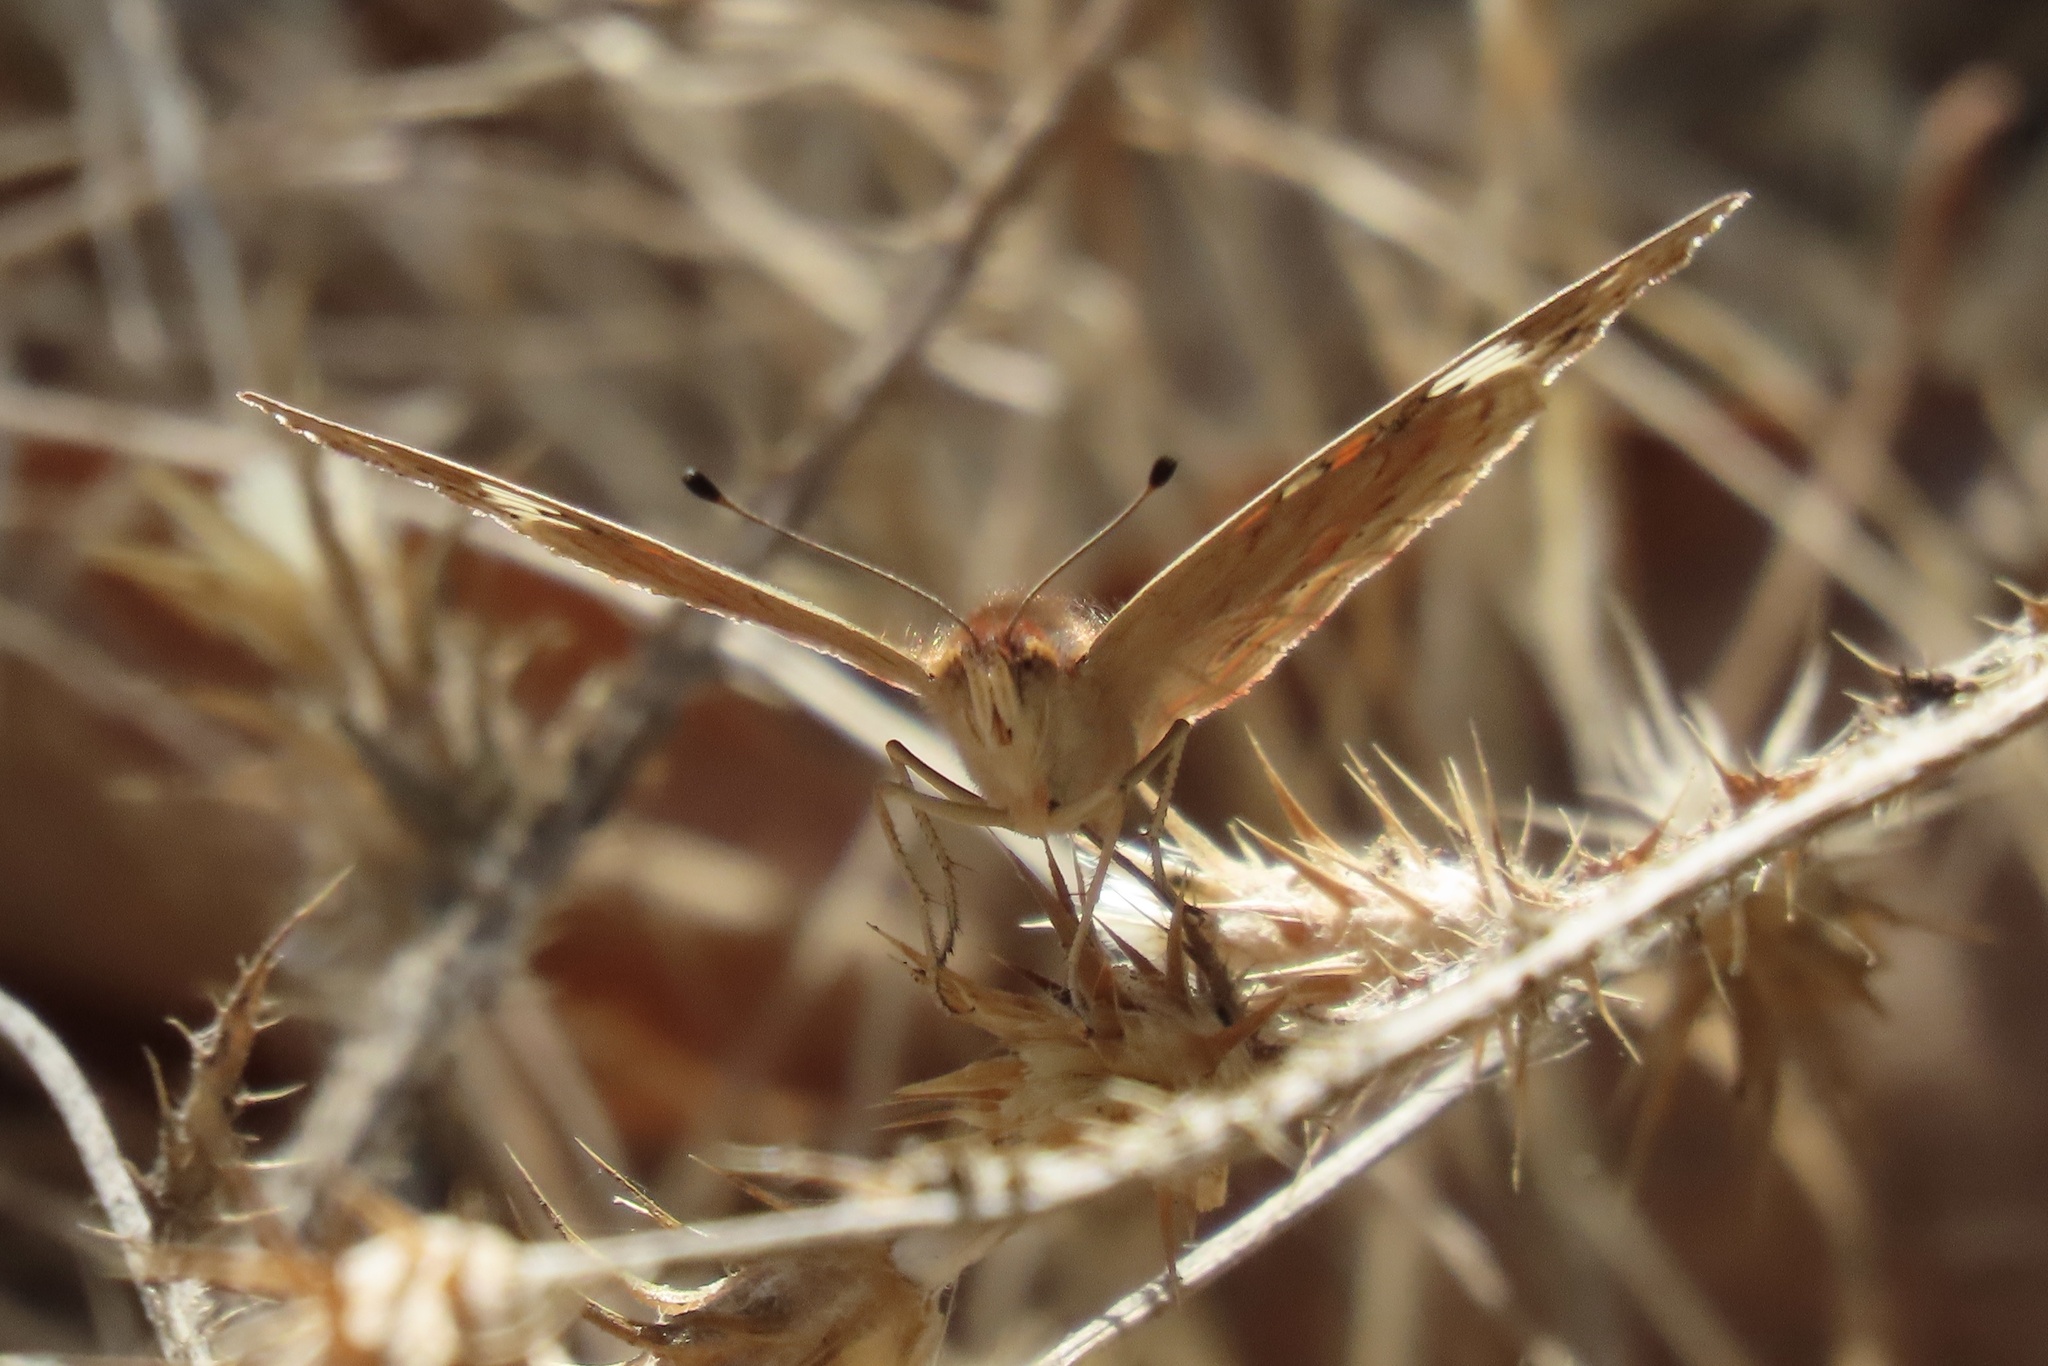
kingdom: Animalia
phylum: Arthropoda
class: Insecta
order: Lepidoptera
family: Nymphalidae
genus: Junonia
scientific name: Junonia grisea
